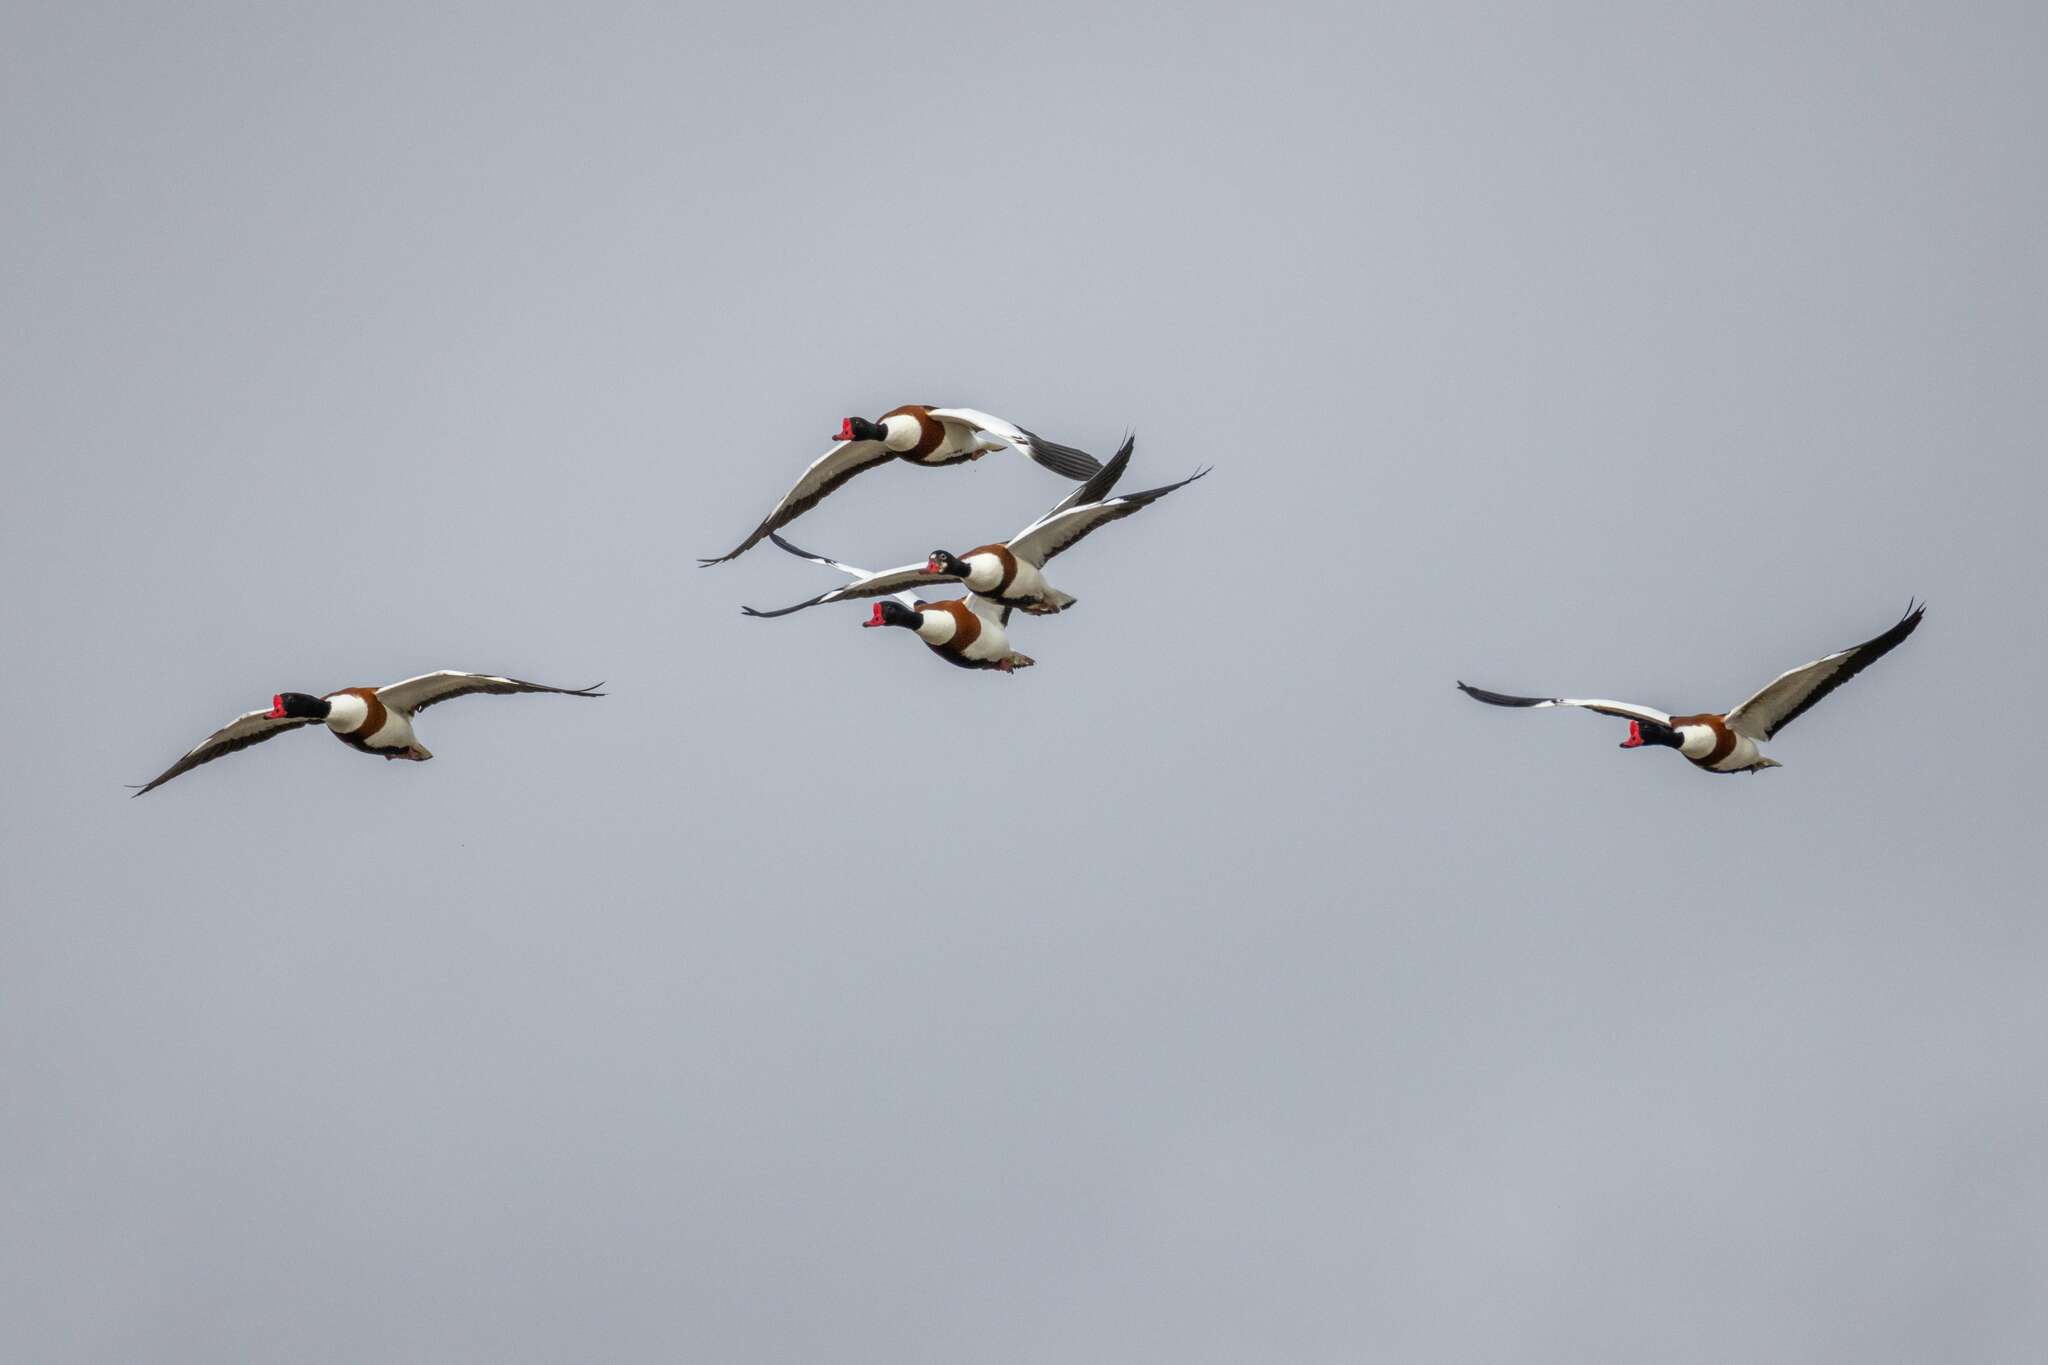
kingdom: Animalia
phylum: Chordata
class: Aves
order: Anseriformes
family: Anatidae
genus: Tadorna
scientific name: Tadorna tadorna
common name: Common shelduck
